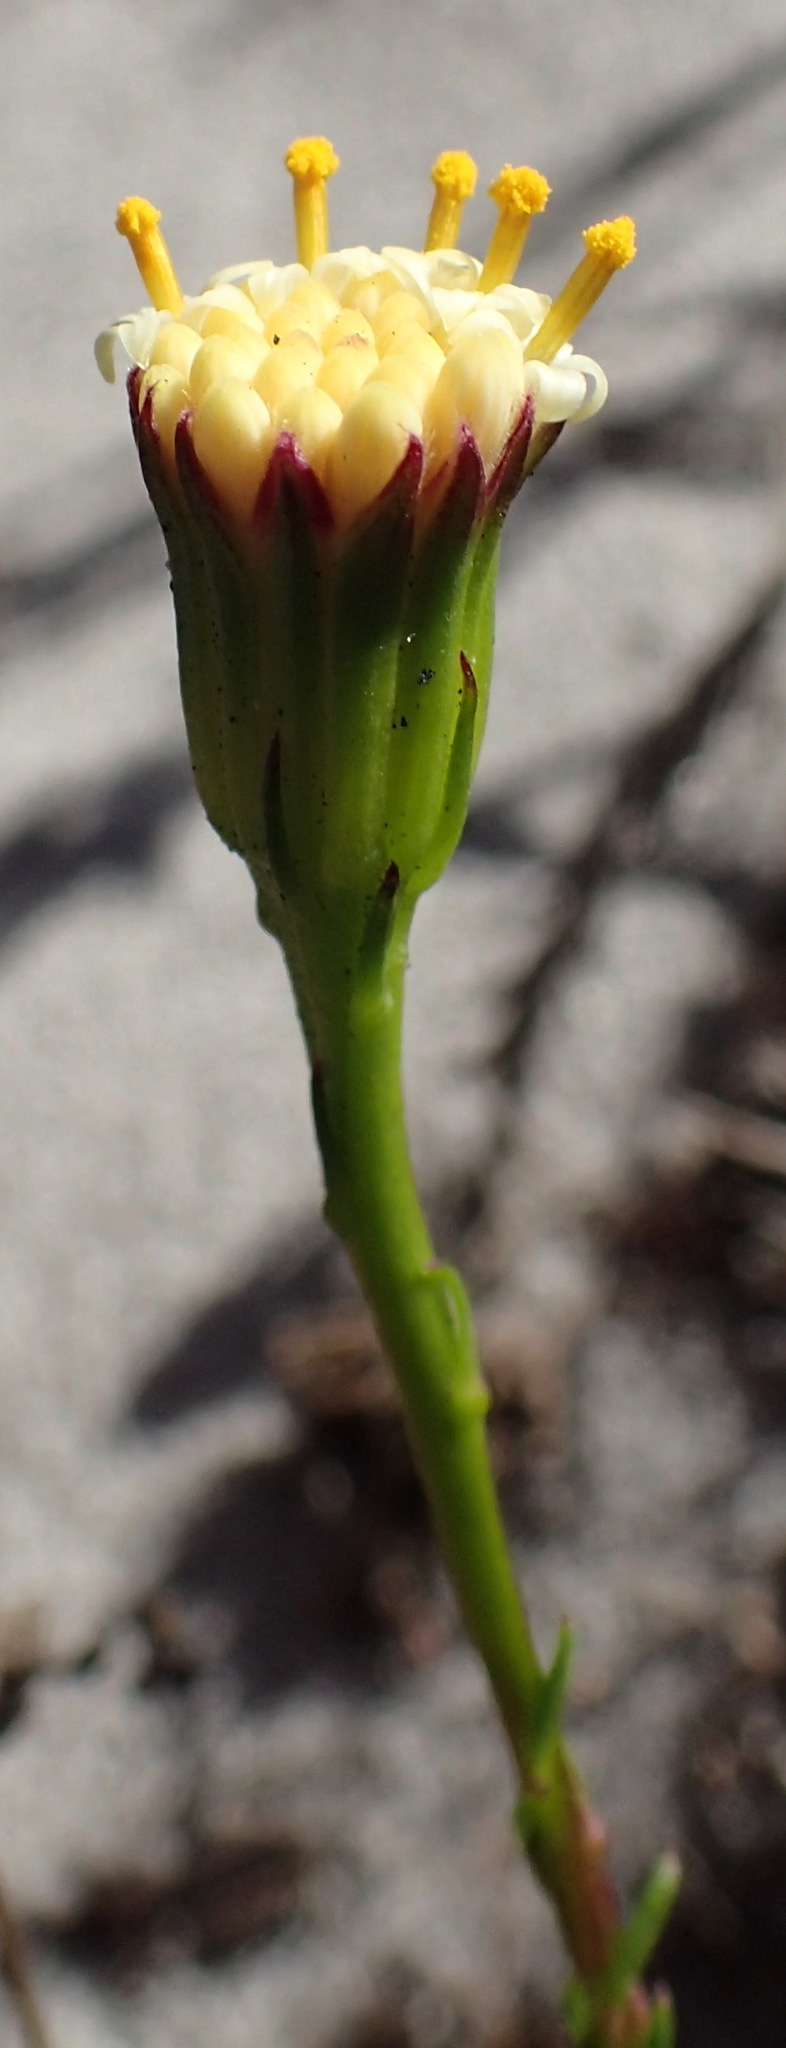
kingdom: Plantae
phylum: Tracheophyta
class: Magnoliopsida
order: Asterales
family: Asteraceae
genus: Senecio
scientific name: Senecio triqueter
